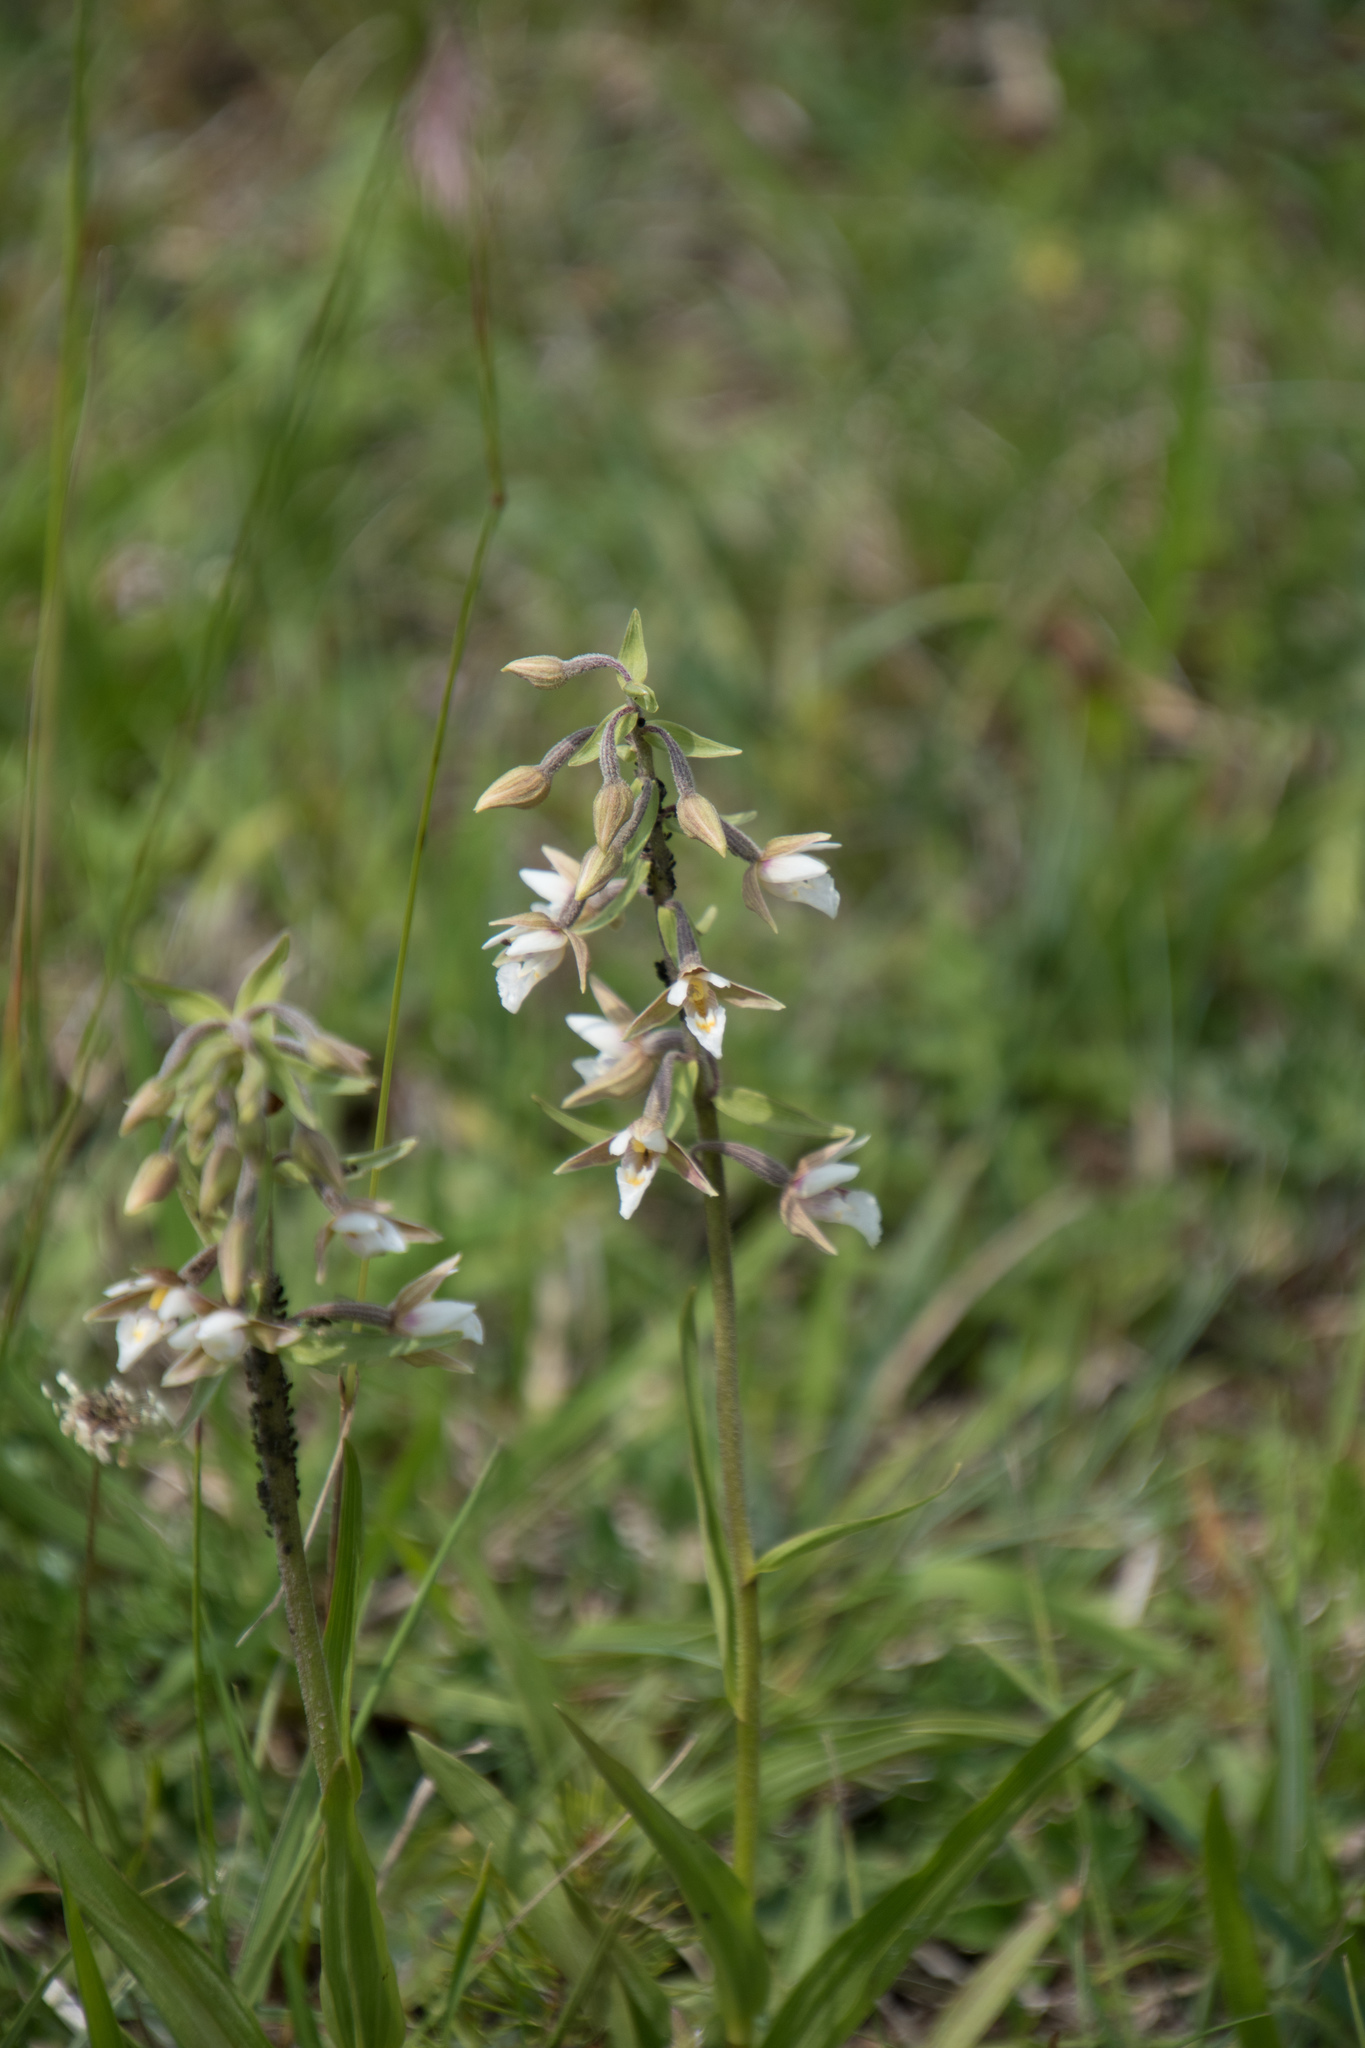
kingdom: Plantae
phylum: Tracheophyta
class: Liliopsida
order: Asparagales
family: Orchidaceae
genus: Epipactis
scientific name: Epipactis palustris
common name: Marsh helleborine
